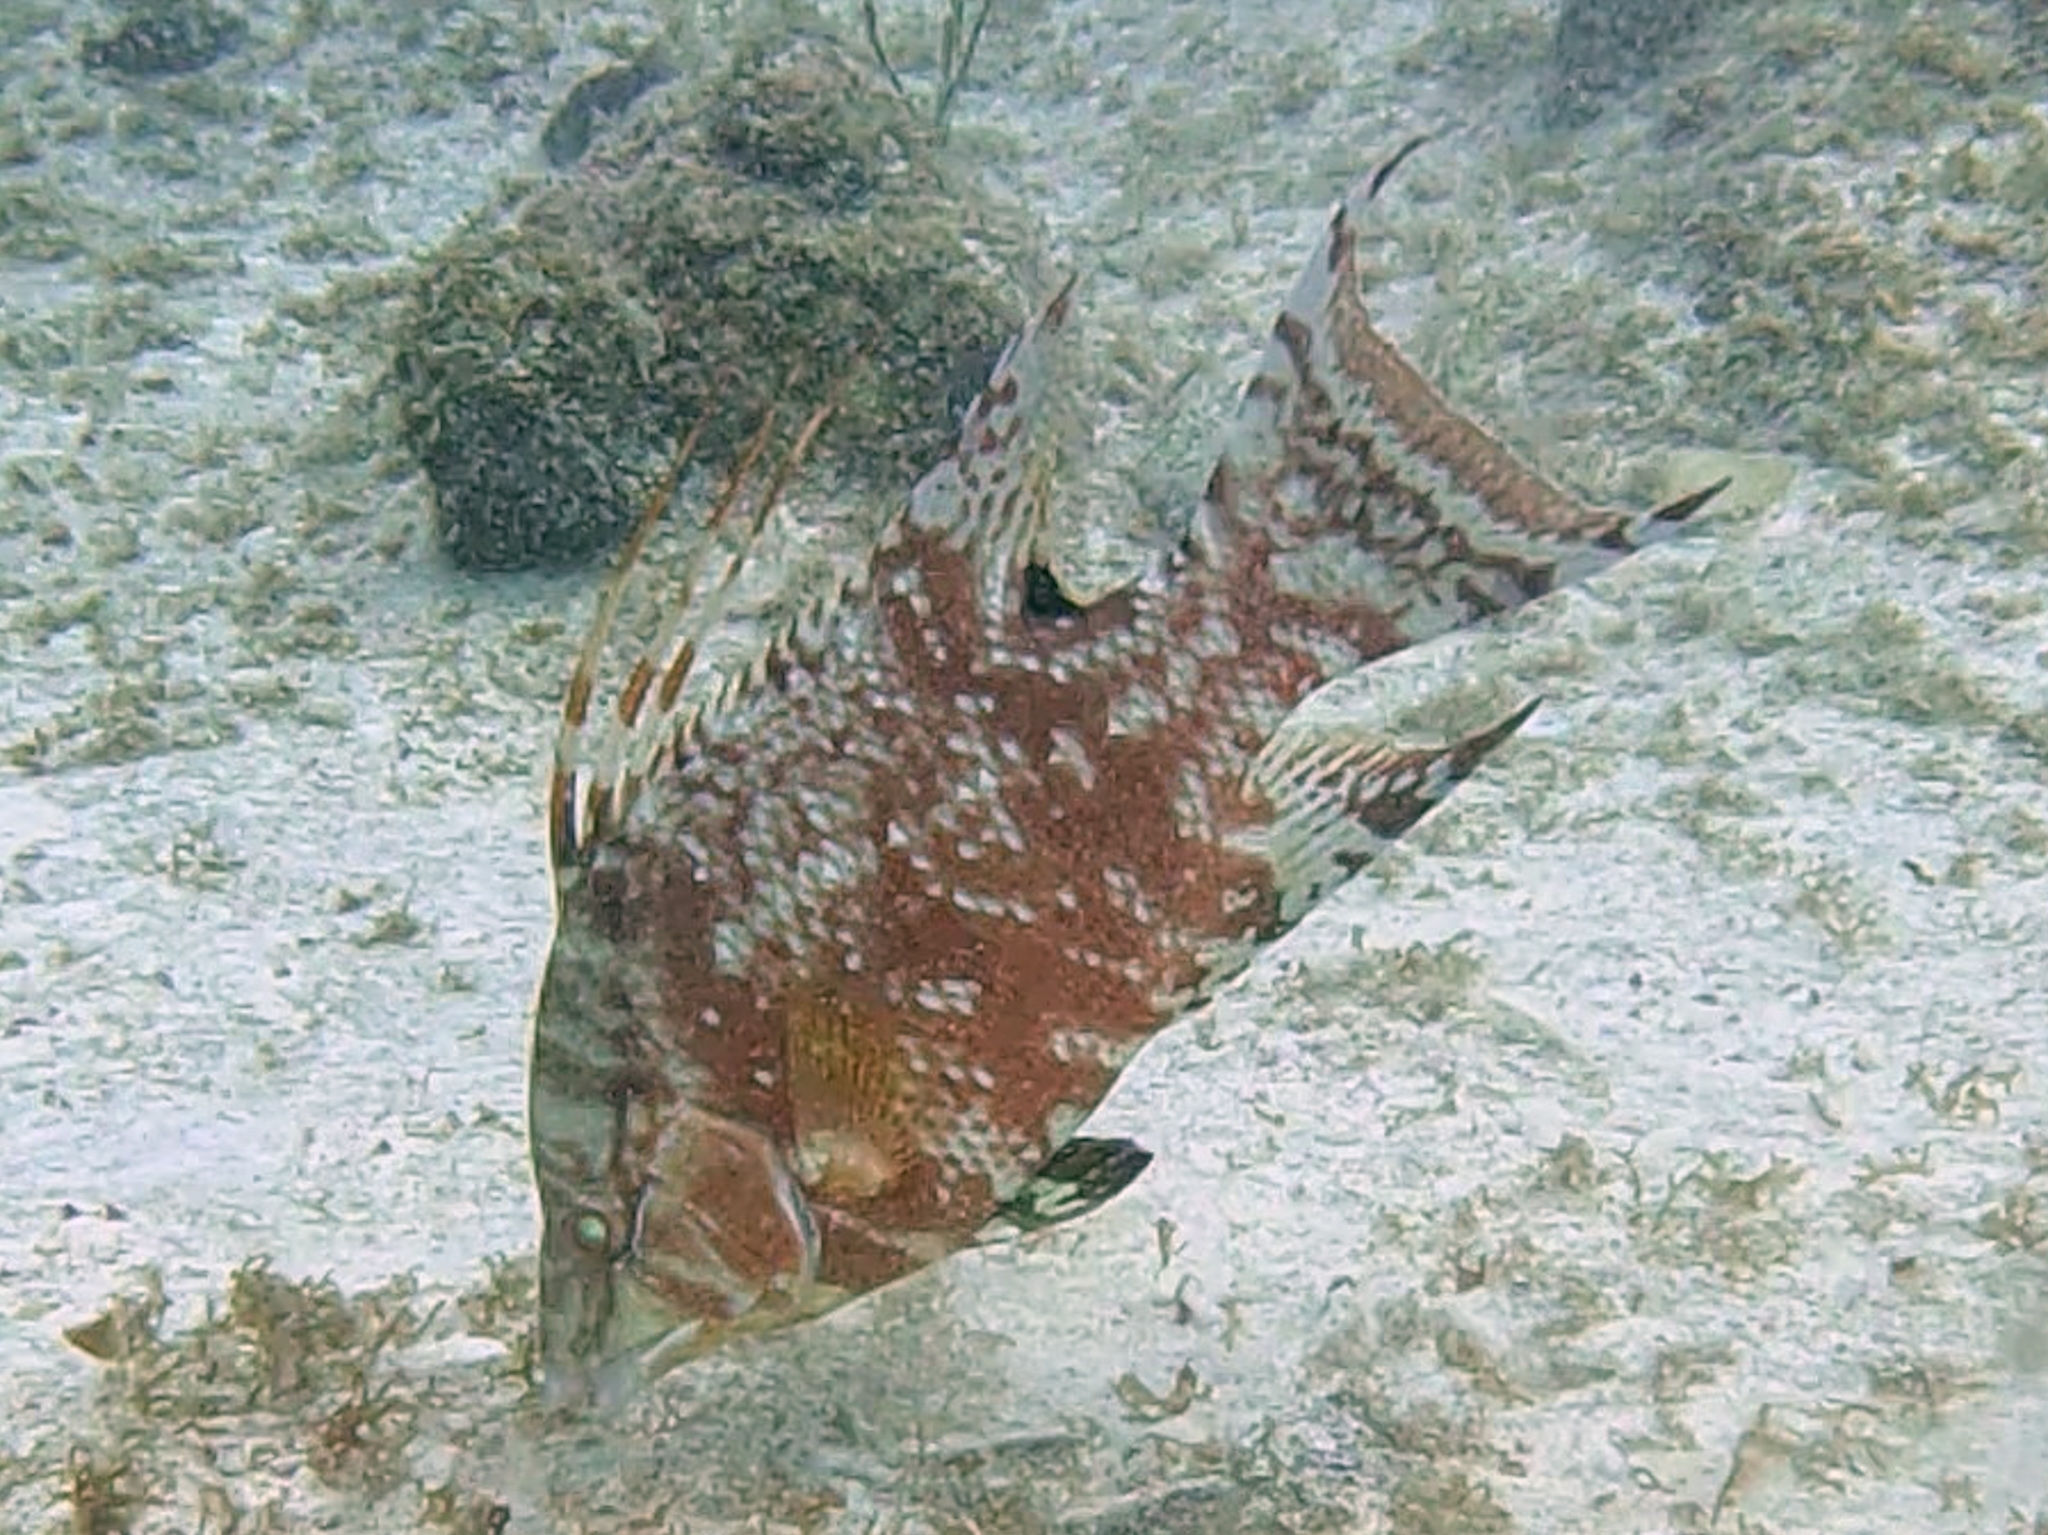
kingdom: Animalia
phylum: Chordata
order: Perciformes
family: Labridae
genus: Lachnolaimus
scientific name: Lachnolaimus maximus
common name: Hogfish
